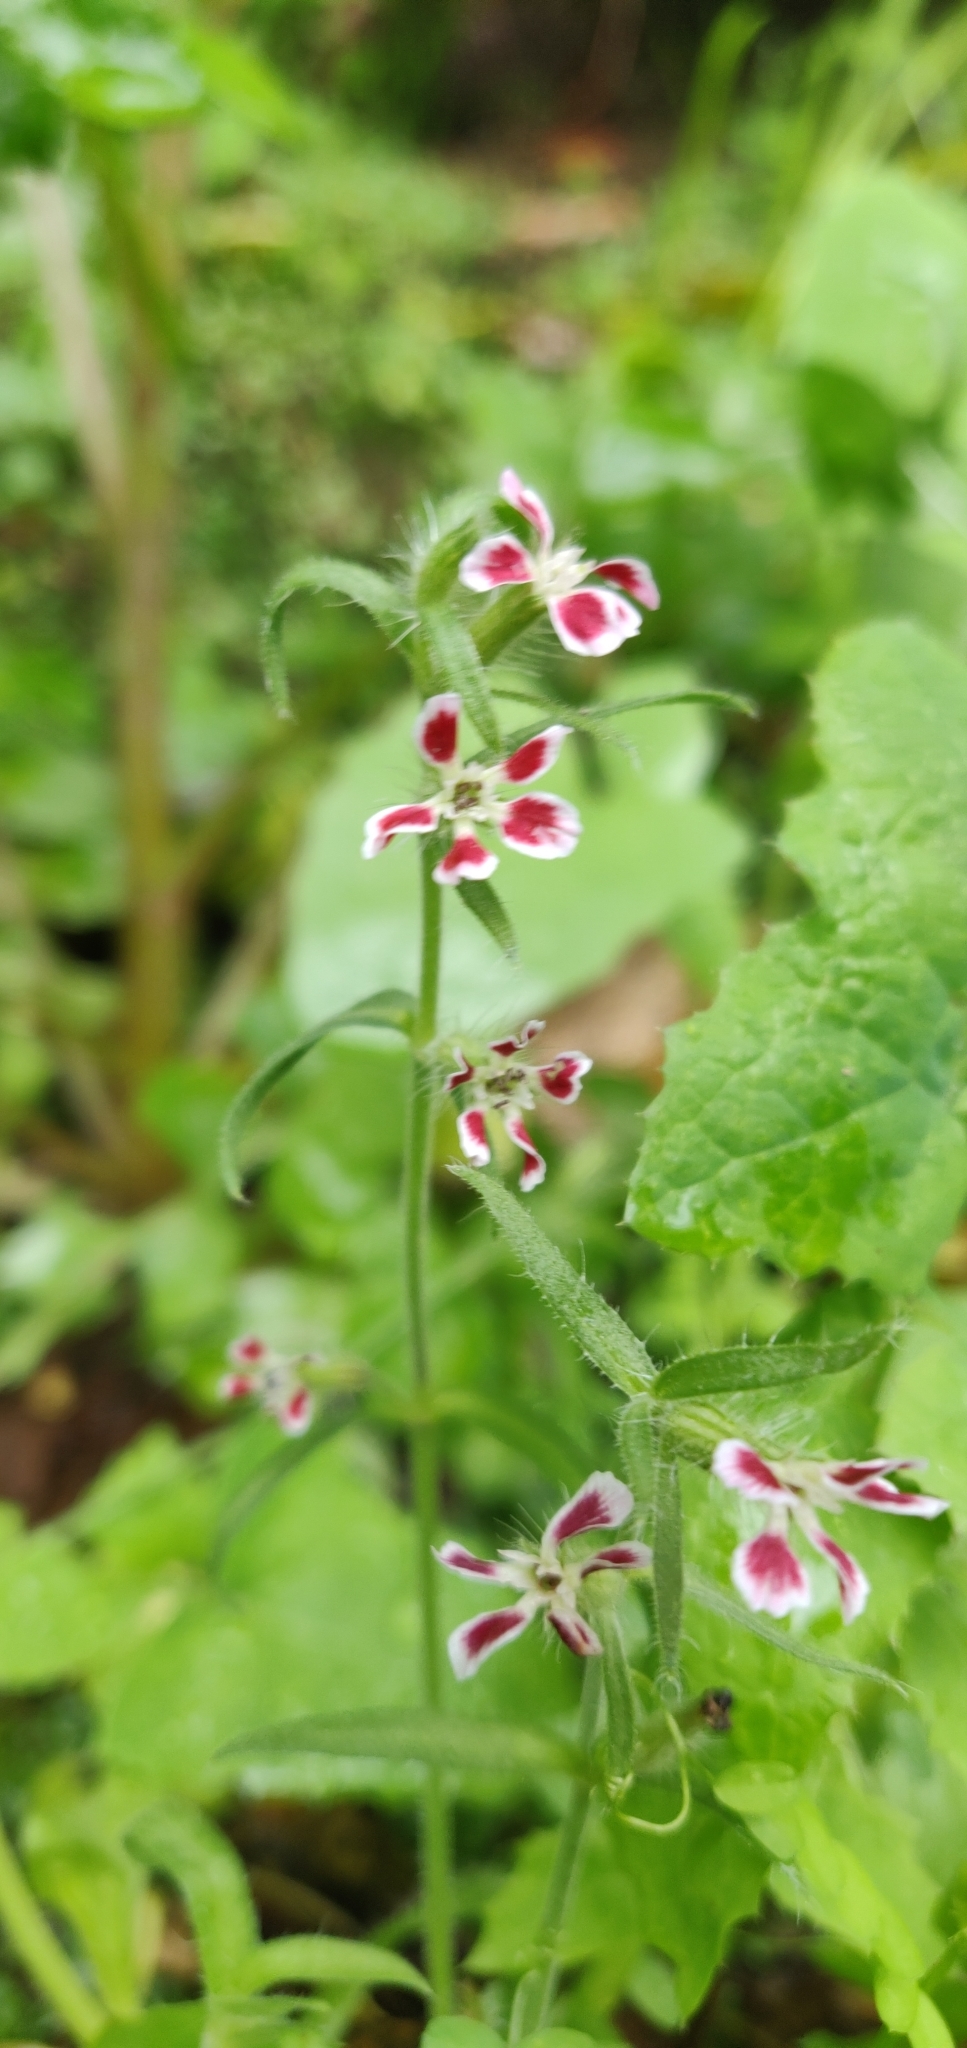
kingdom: Plantae
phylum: Tracheophyta
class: Magnoliopsida
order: Caryophyllales
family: Caryophyllaceae
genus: Silene
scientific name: Silene gallica
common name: Small-flowered catchfly
